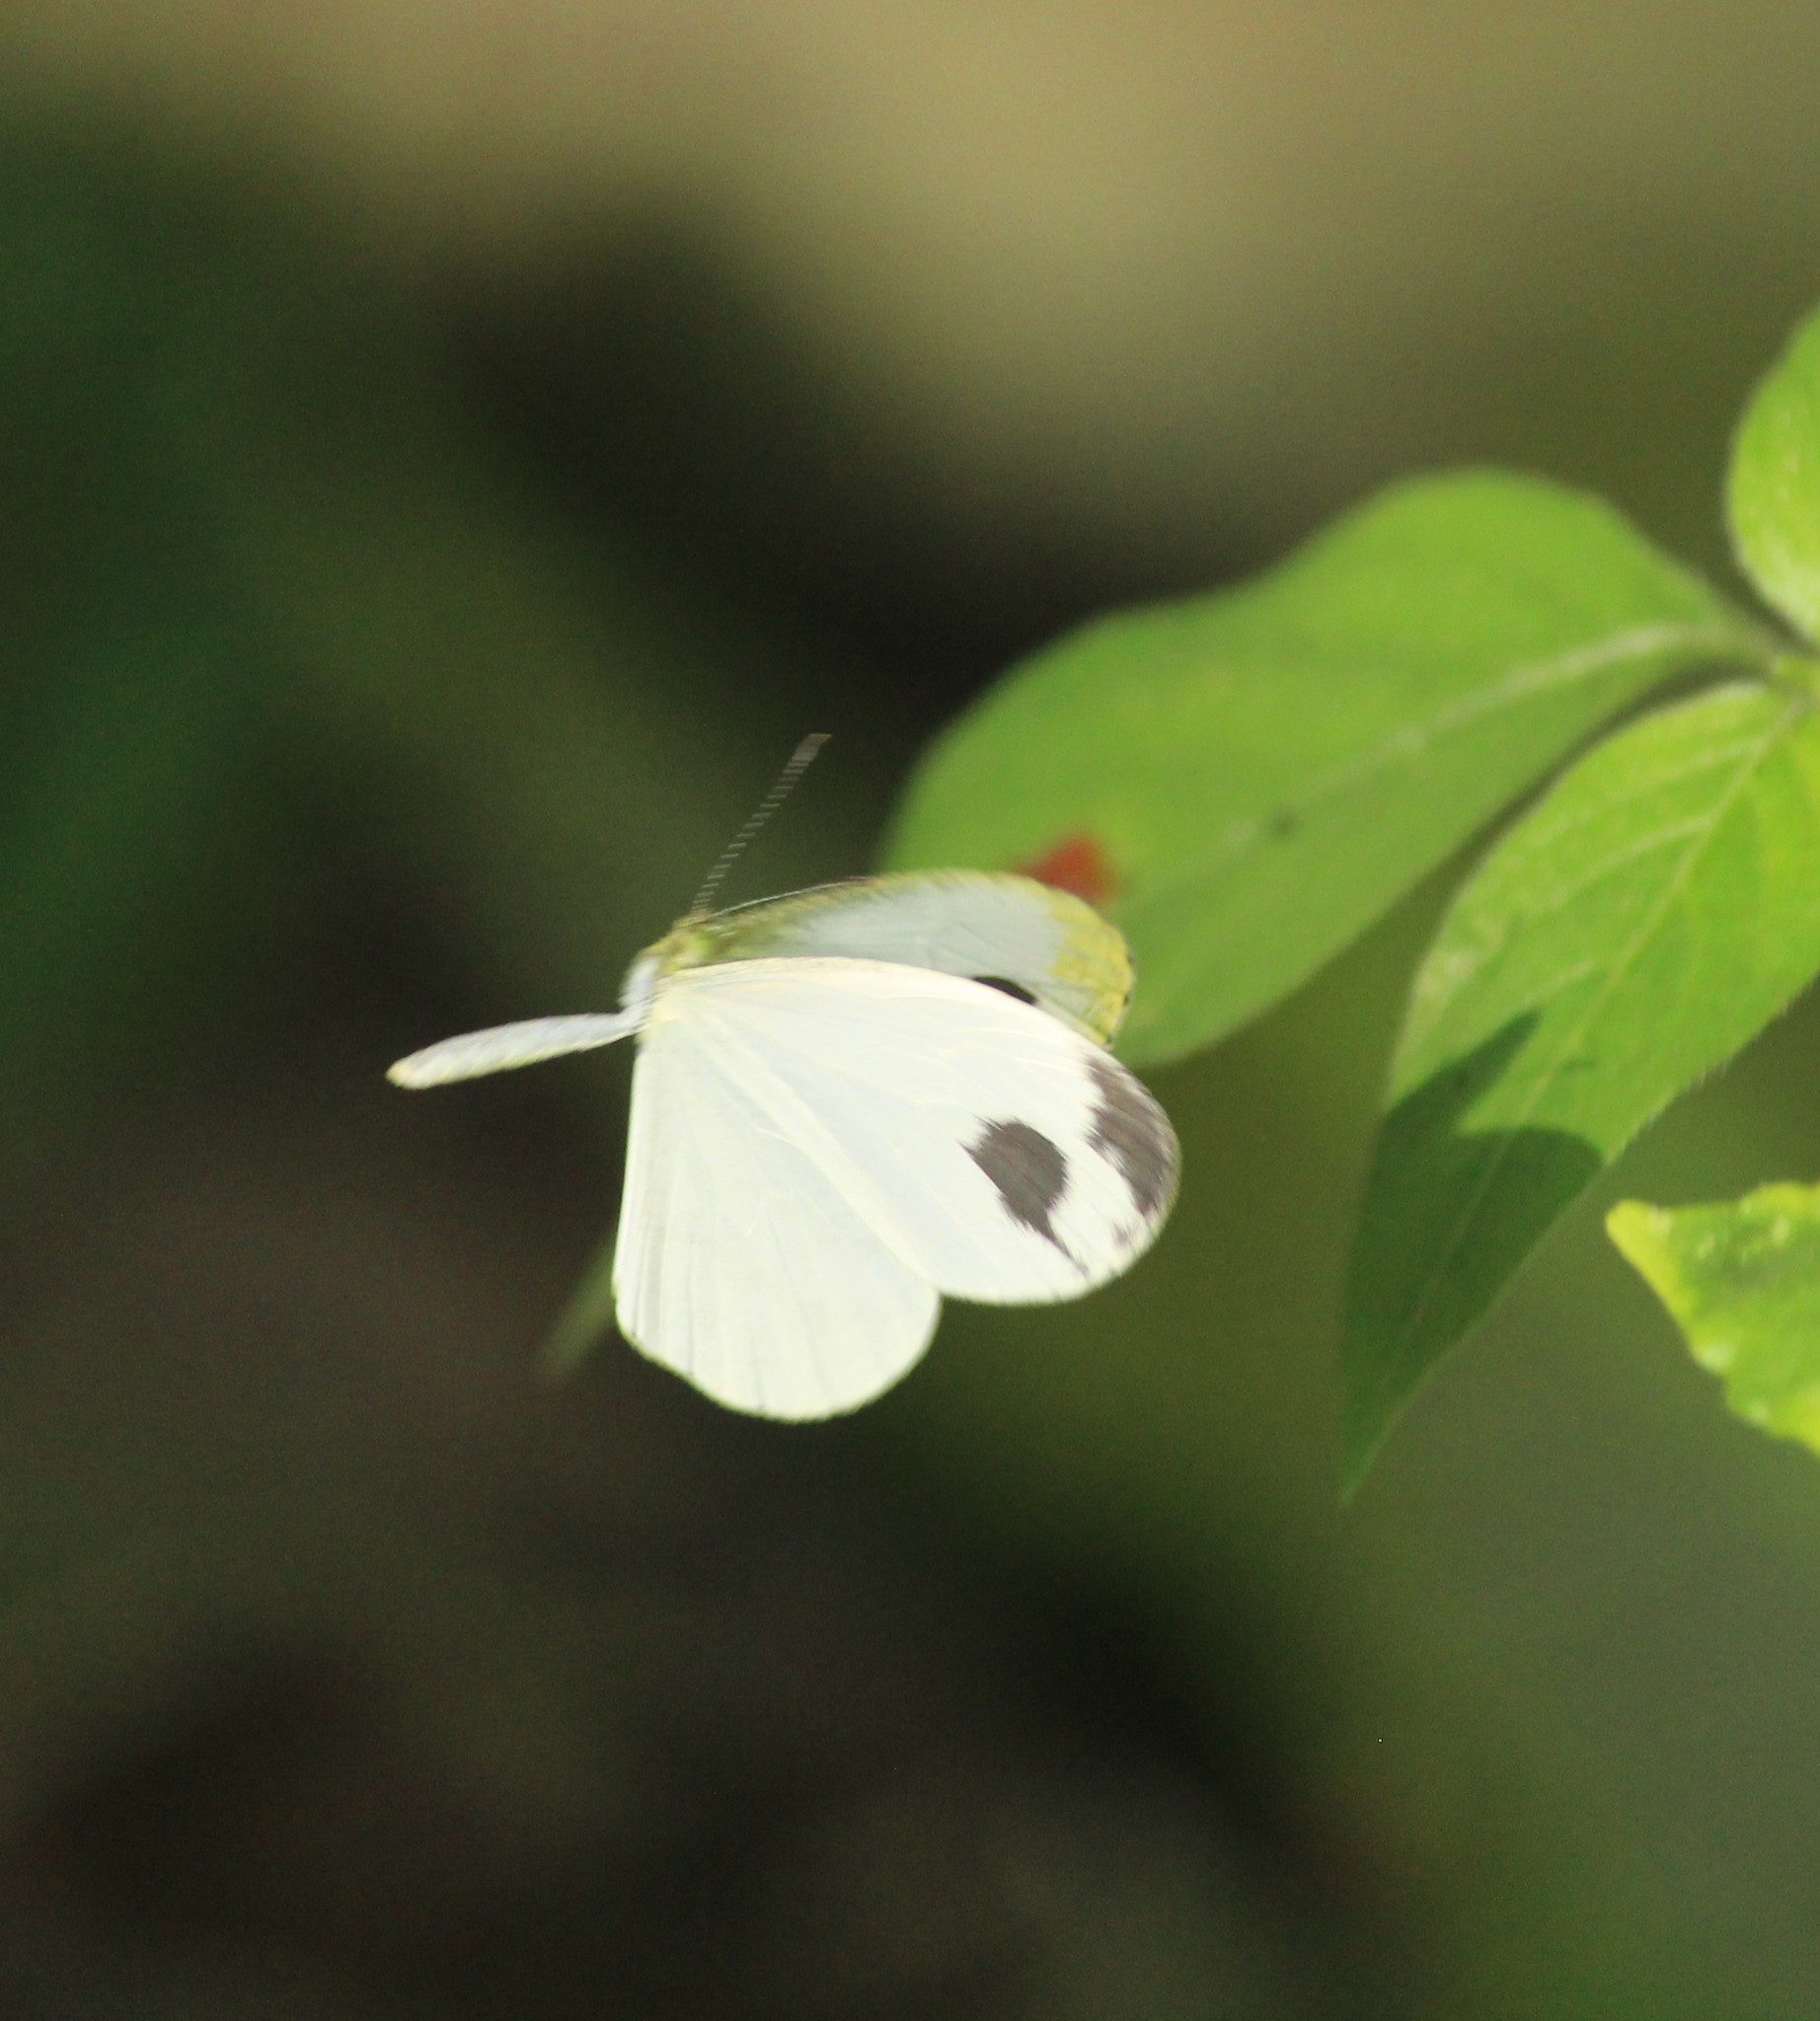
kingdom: Animalia
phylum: Arthropoda
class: Insecta
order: Lepidoptera
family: Pieridae
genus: Leptosia
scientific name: Leptosia nina
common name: Psyche
